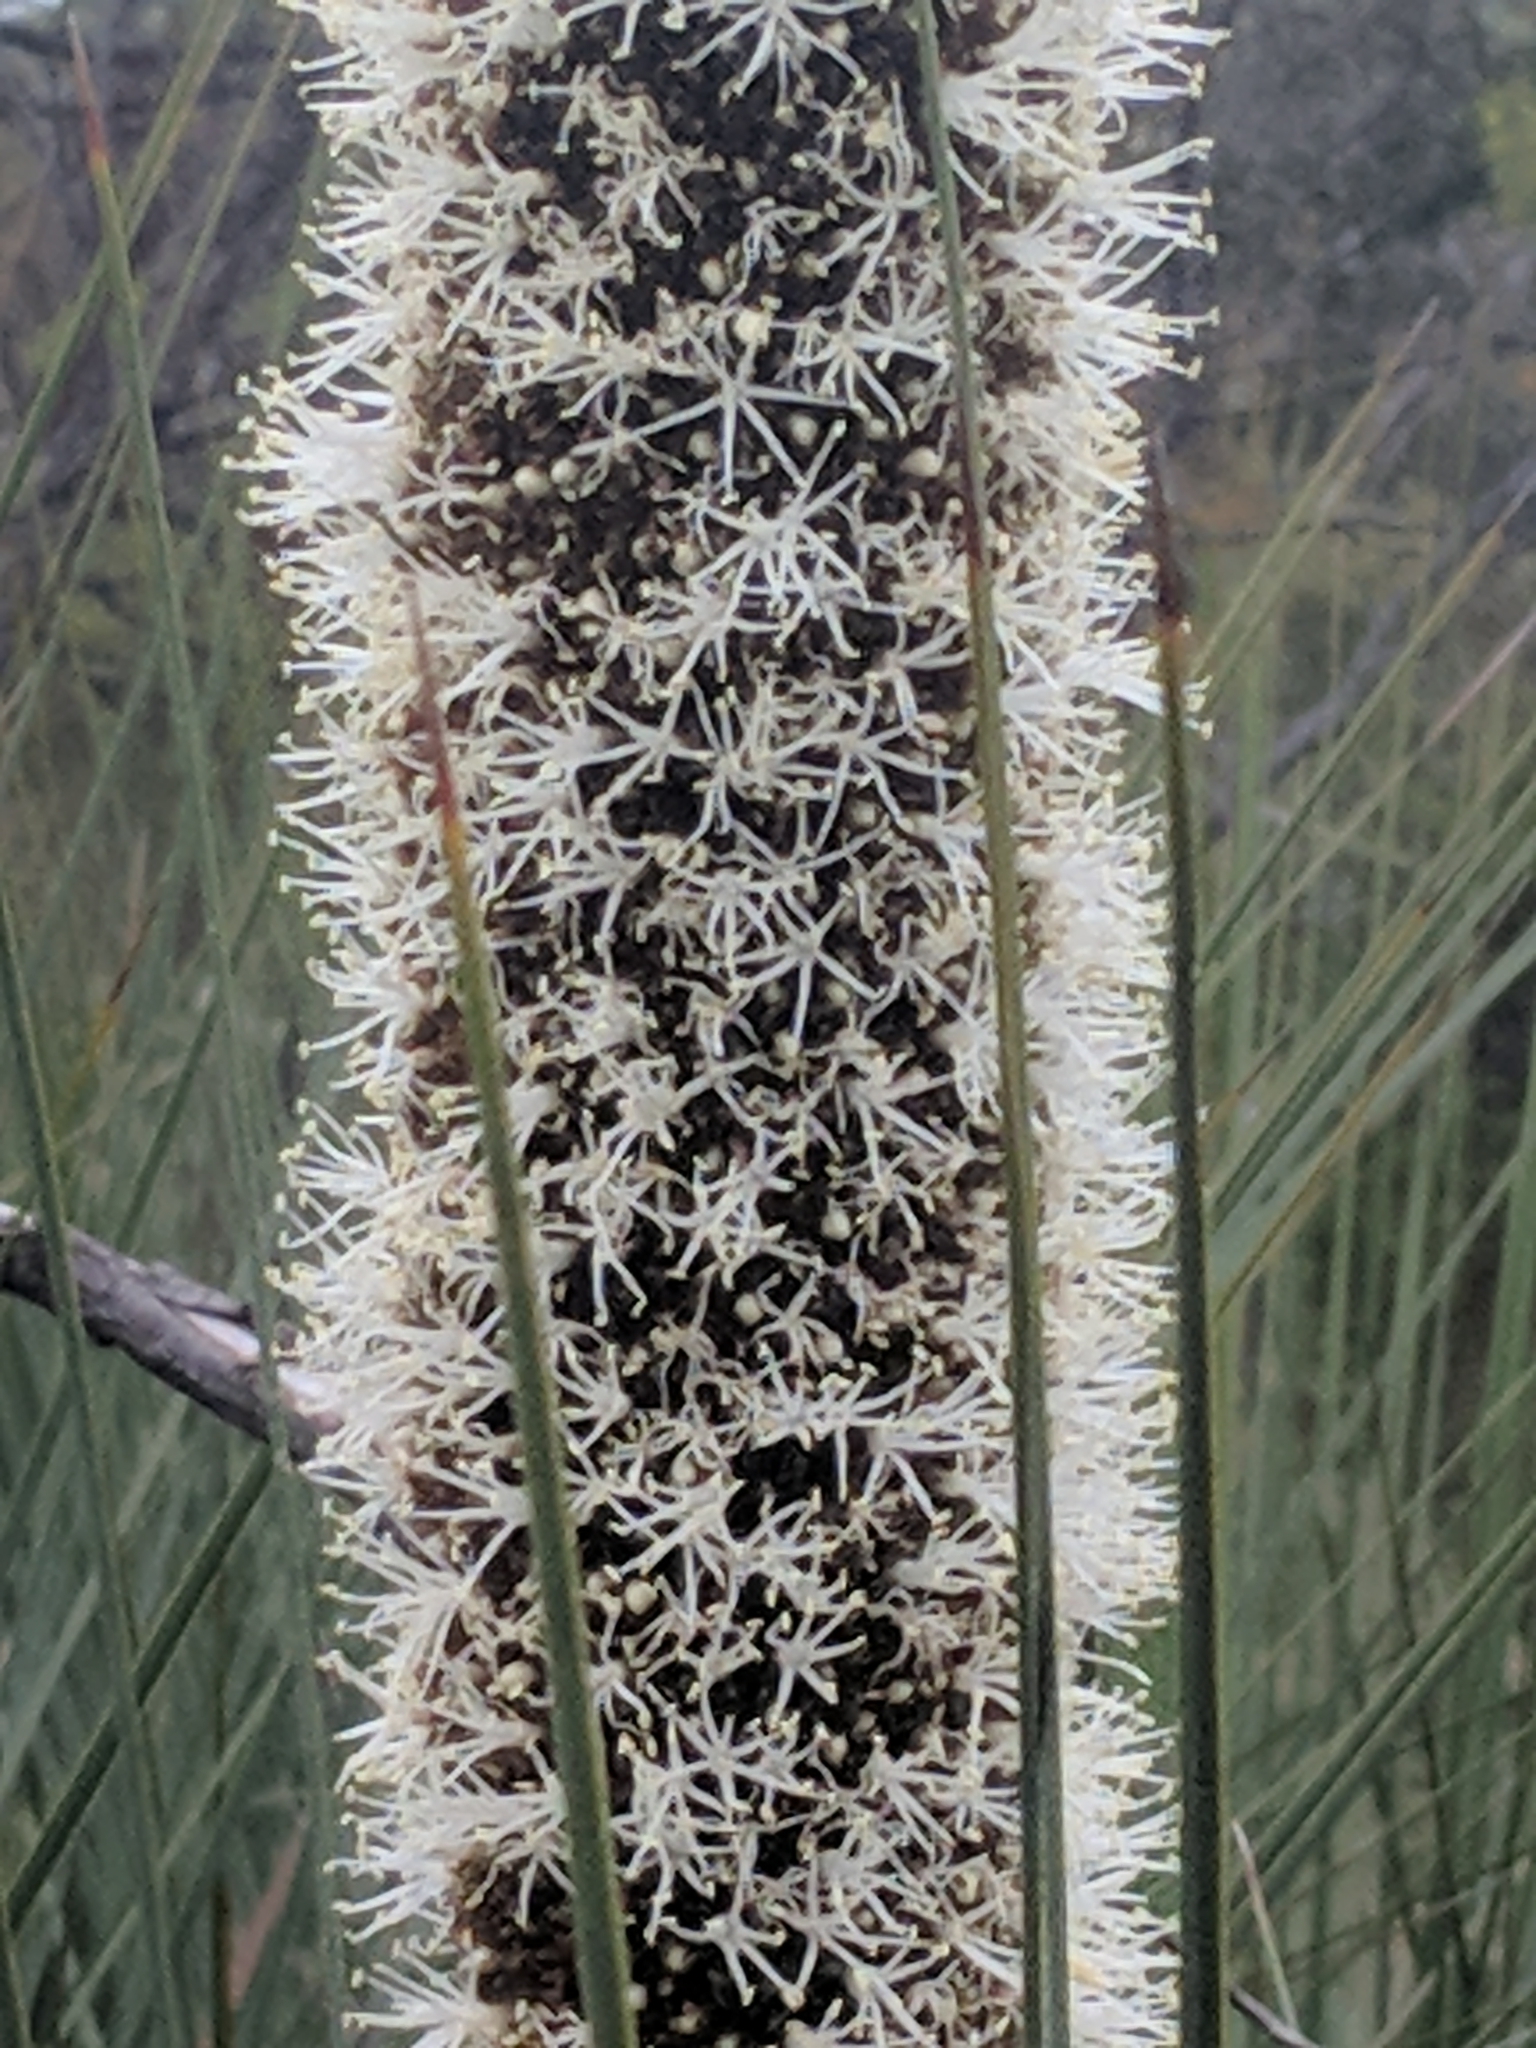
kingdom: Plantae
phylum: Tracheophyta
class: Liliopsida
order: Asparagales
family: Asphodelaceae
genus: Xanthorrhoea
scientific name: Xanthorrhoea semiplana
